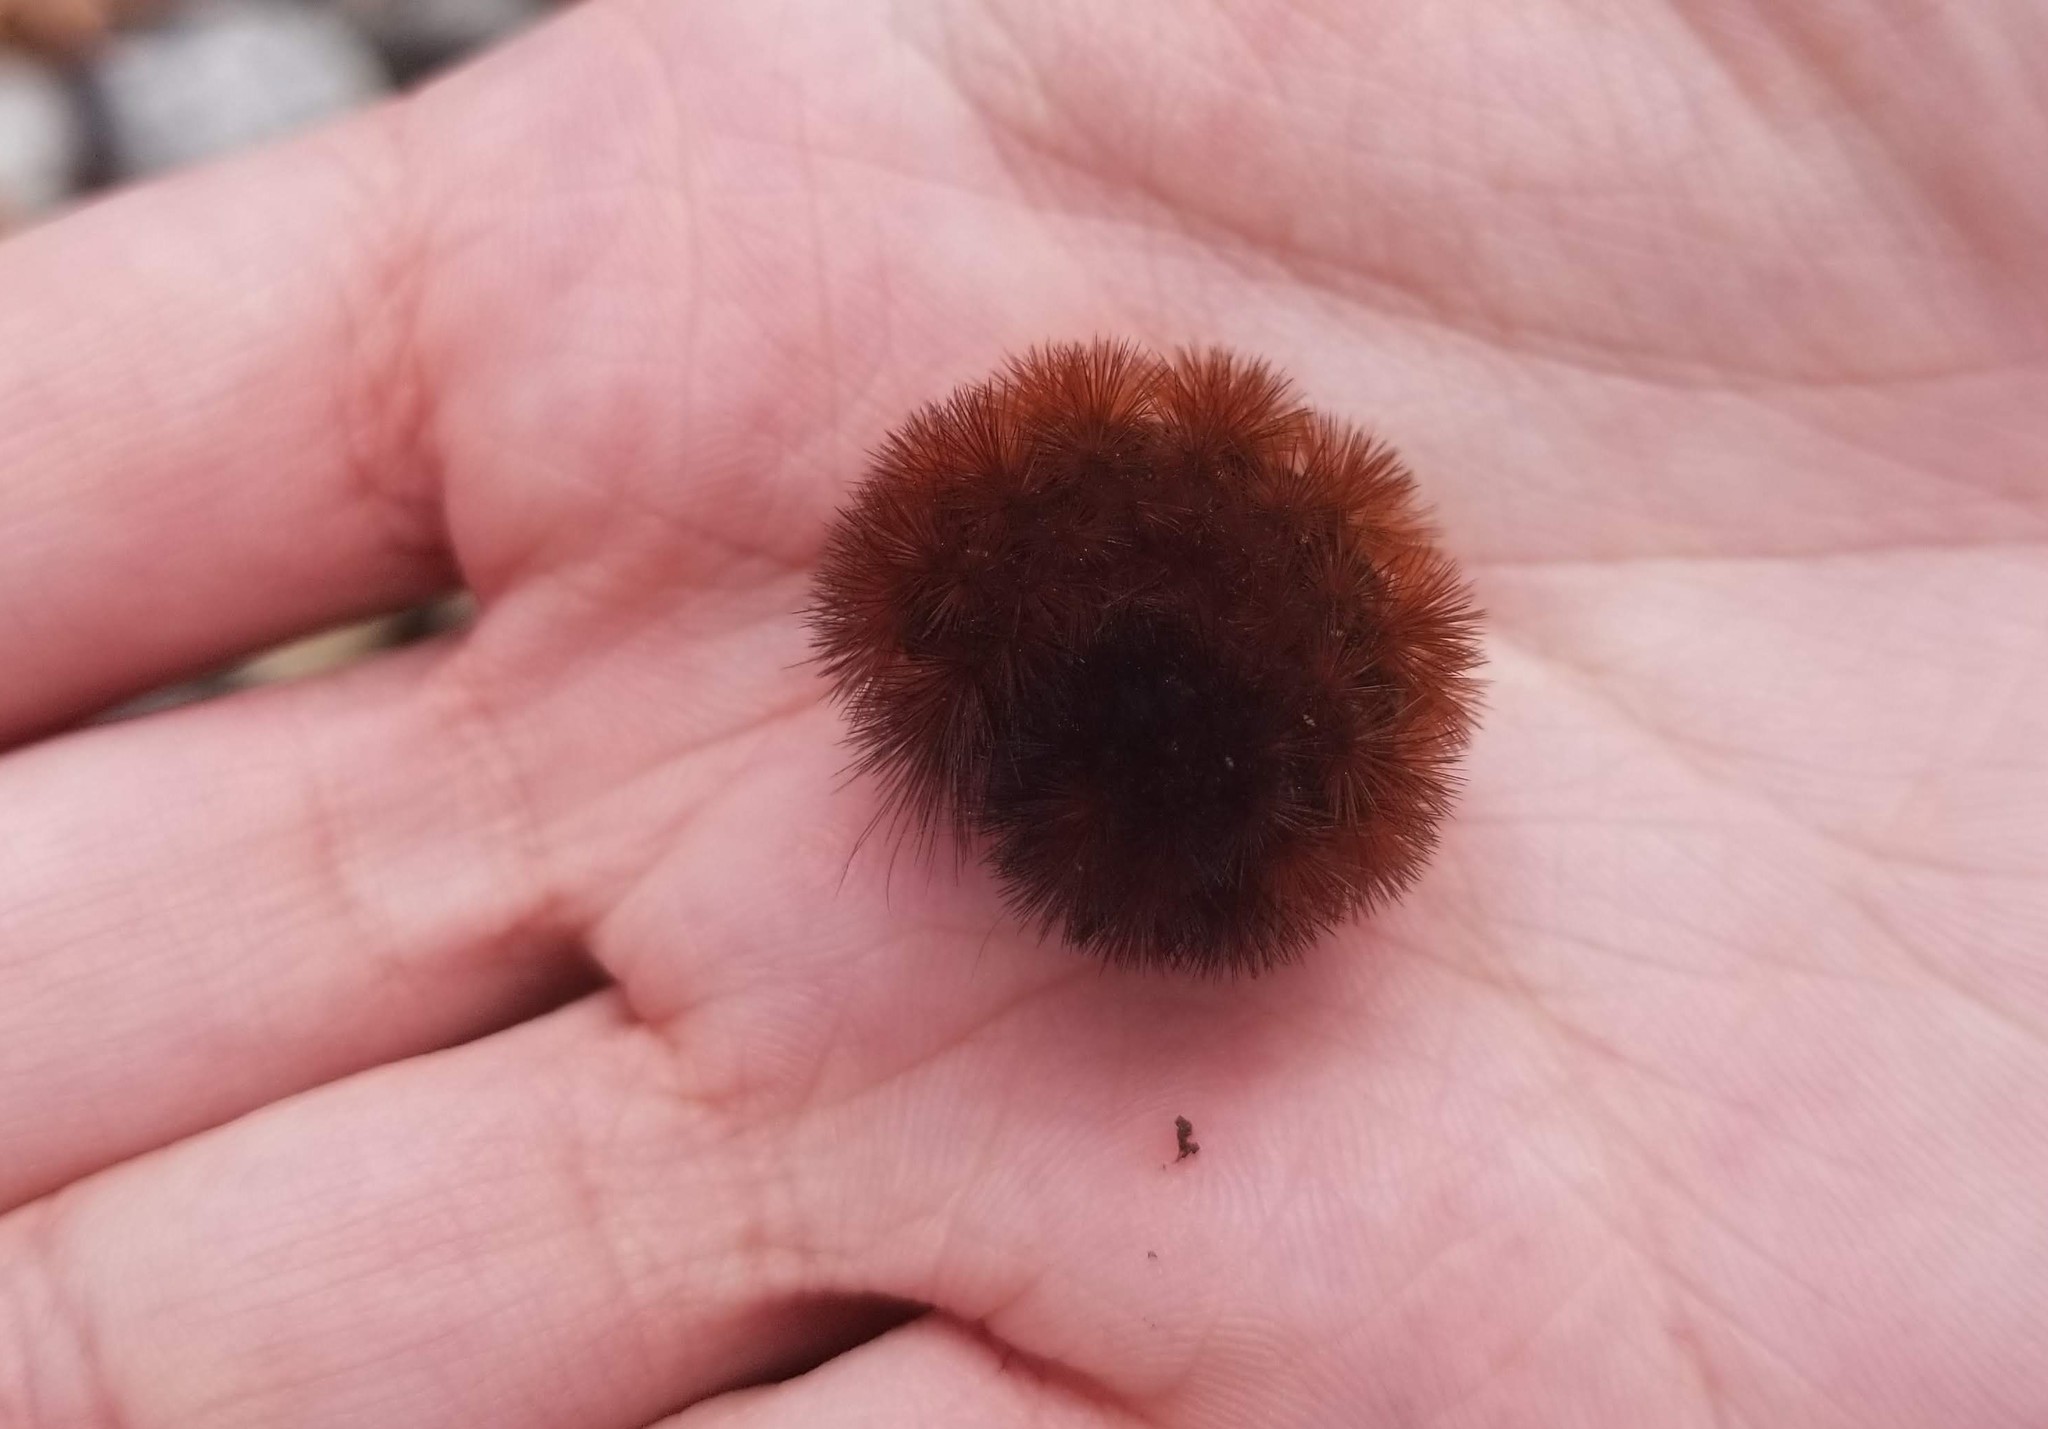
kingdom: Animalia
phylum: Arthropoda
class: Insecta
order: Lepidoptera
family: Erebidae
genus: Pyrrharctia
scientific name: Pyrrharctia isabella
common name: Isabella tiger moth
